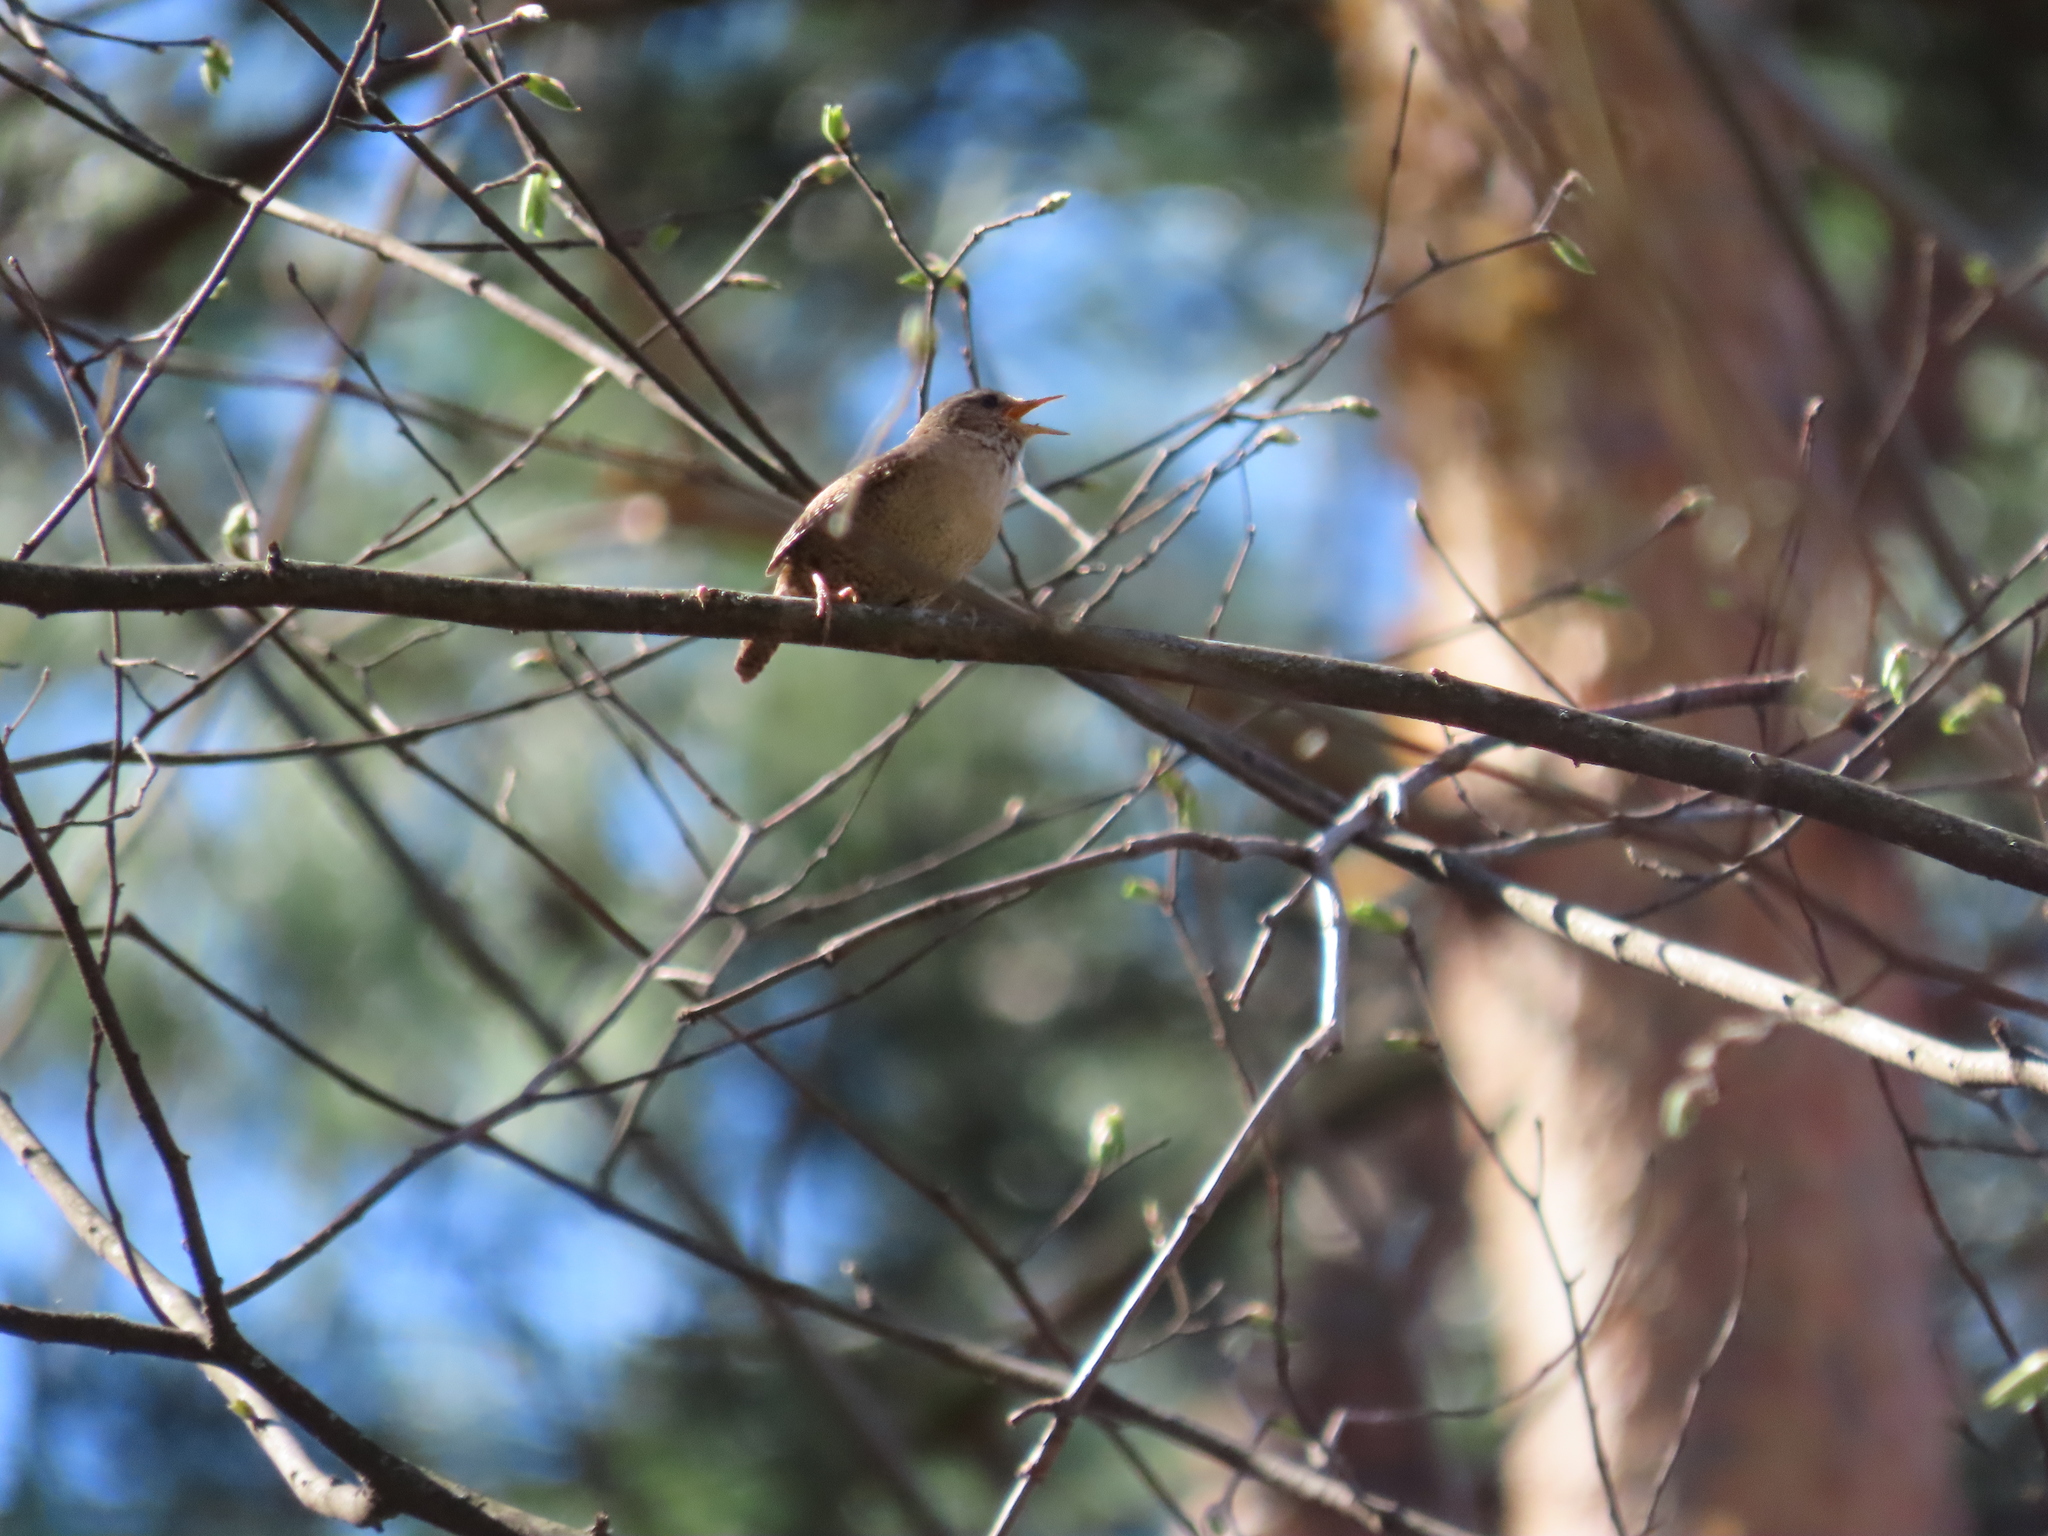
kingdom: Animalia
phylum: Chordata
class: Aves
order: Passeriformes
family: Troglodytidae
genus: Troglodytes
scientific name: Troglodytes troglodytes
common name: Eurasian wren
